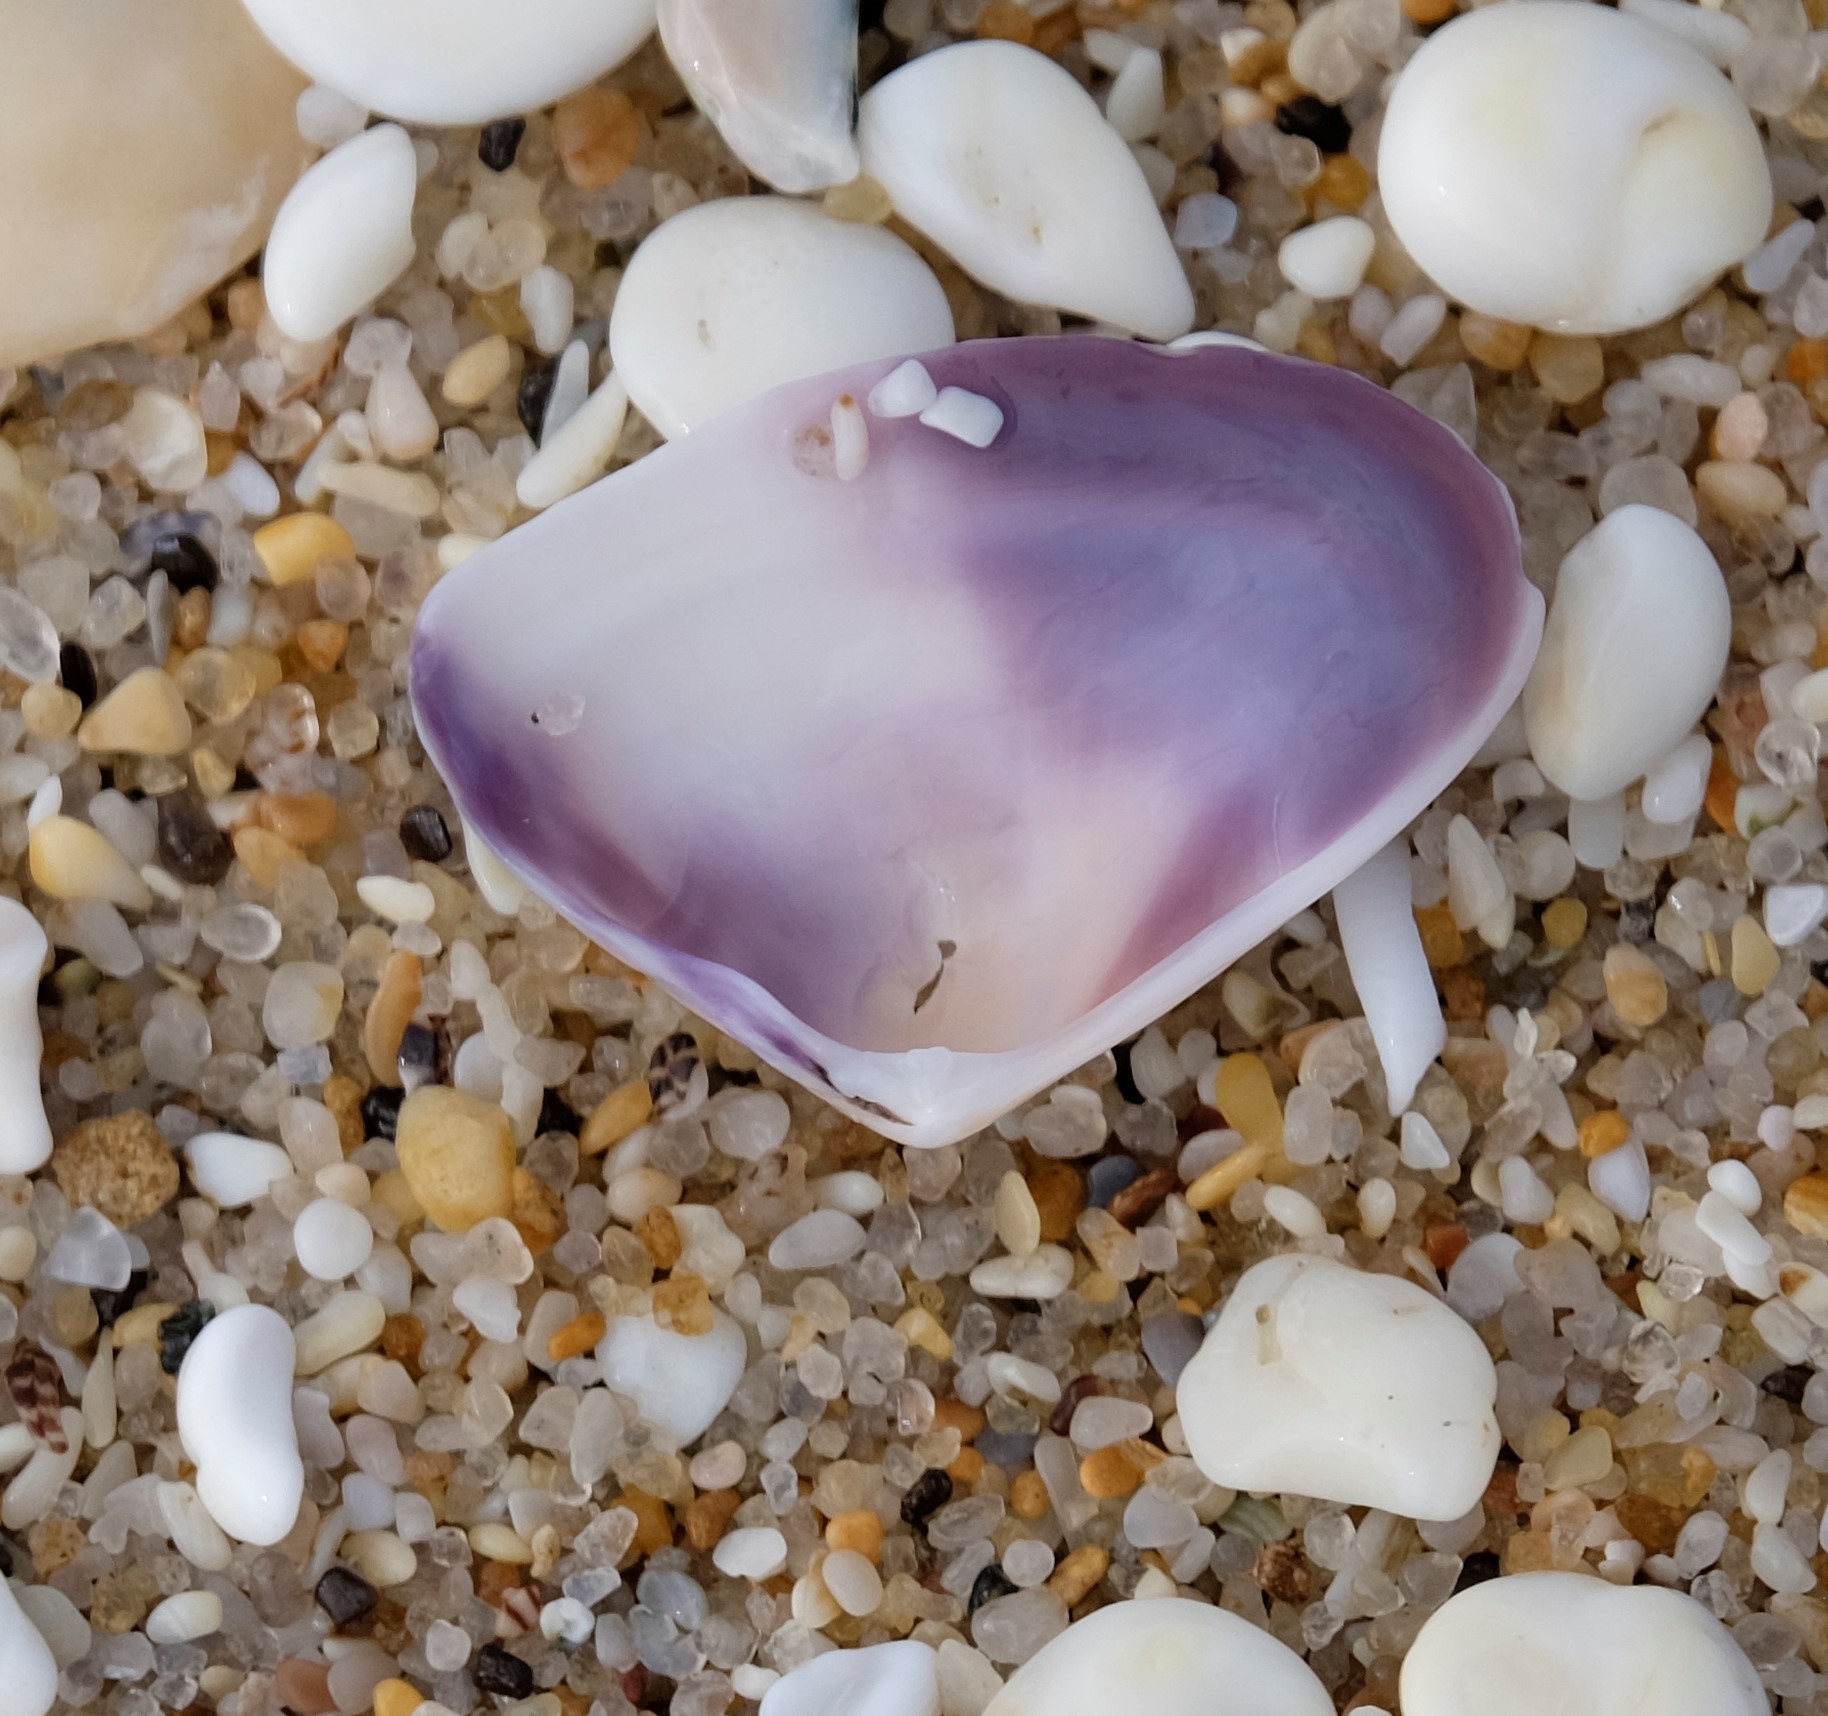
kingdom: Animalia
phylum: Mollusca
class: Bivalvia
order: Cardiida
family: Donacidae
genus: Latona
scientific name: Latona deltoides
